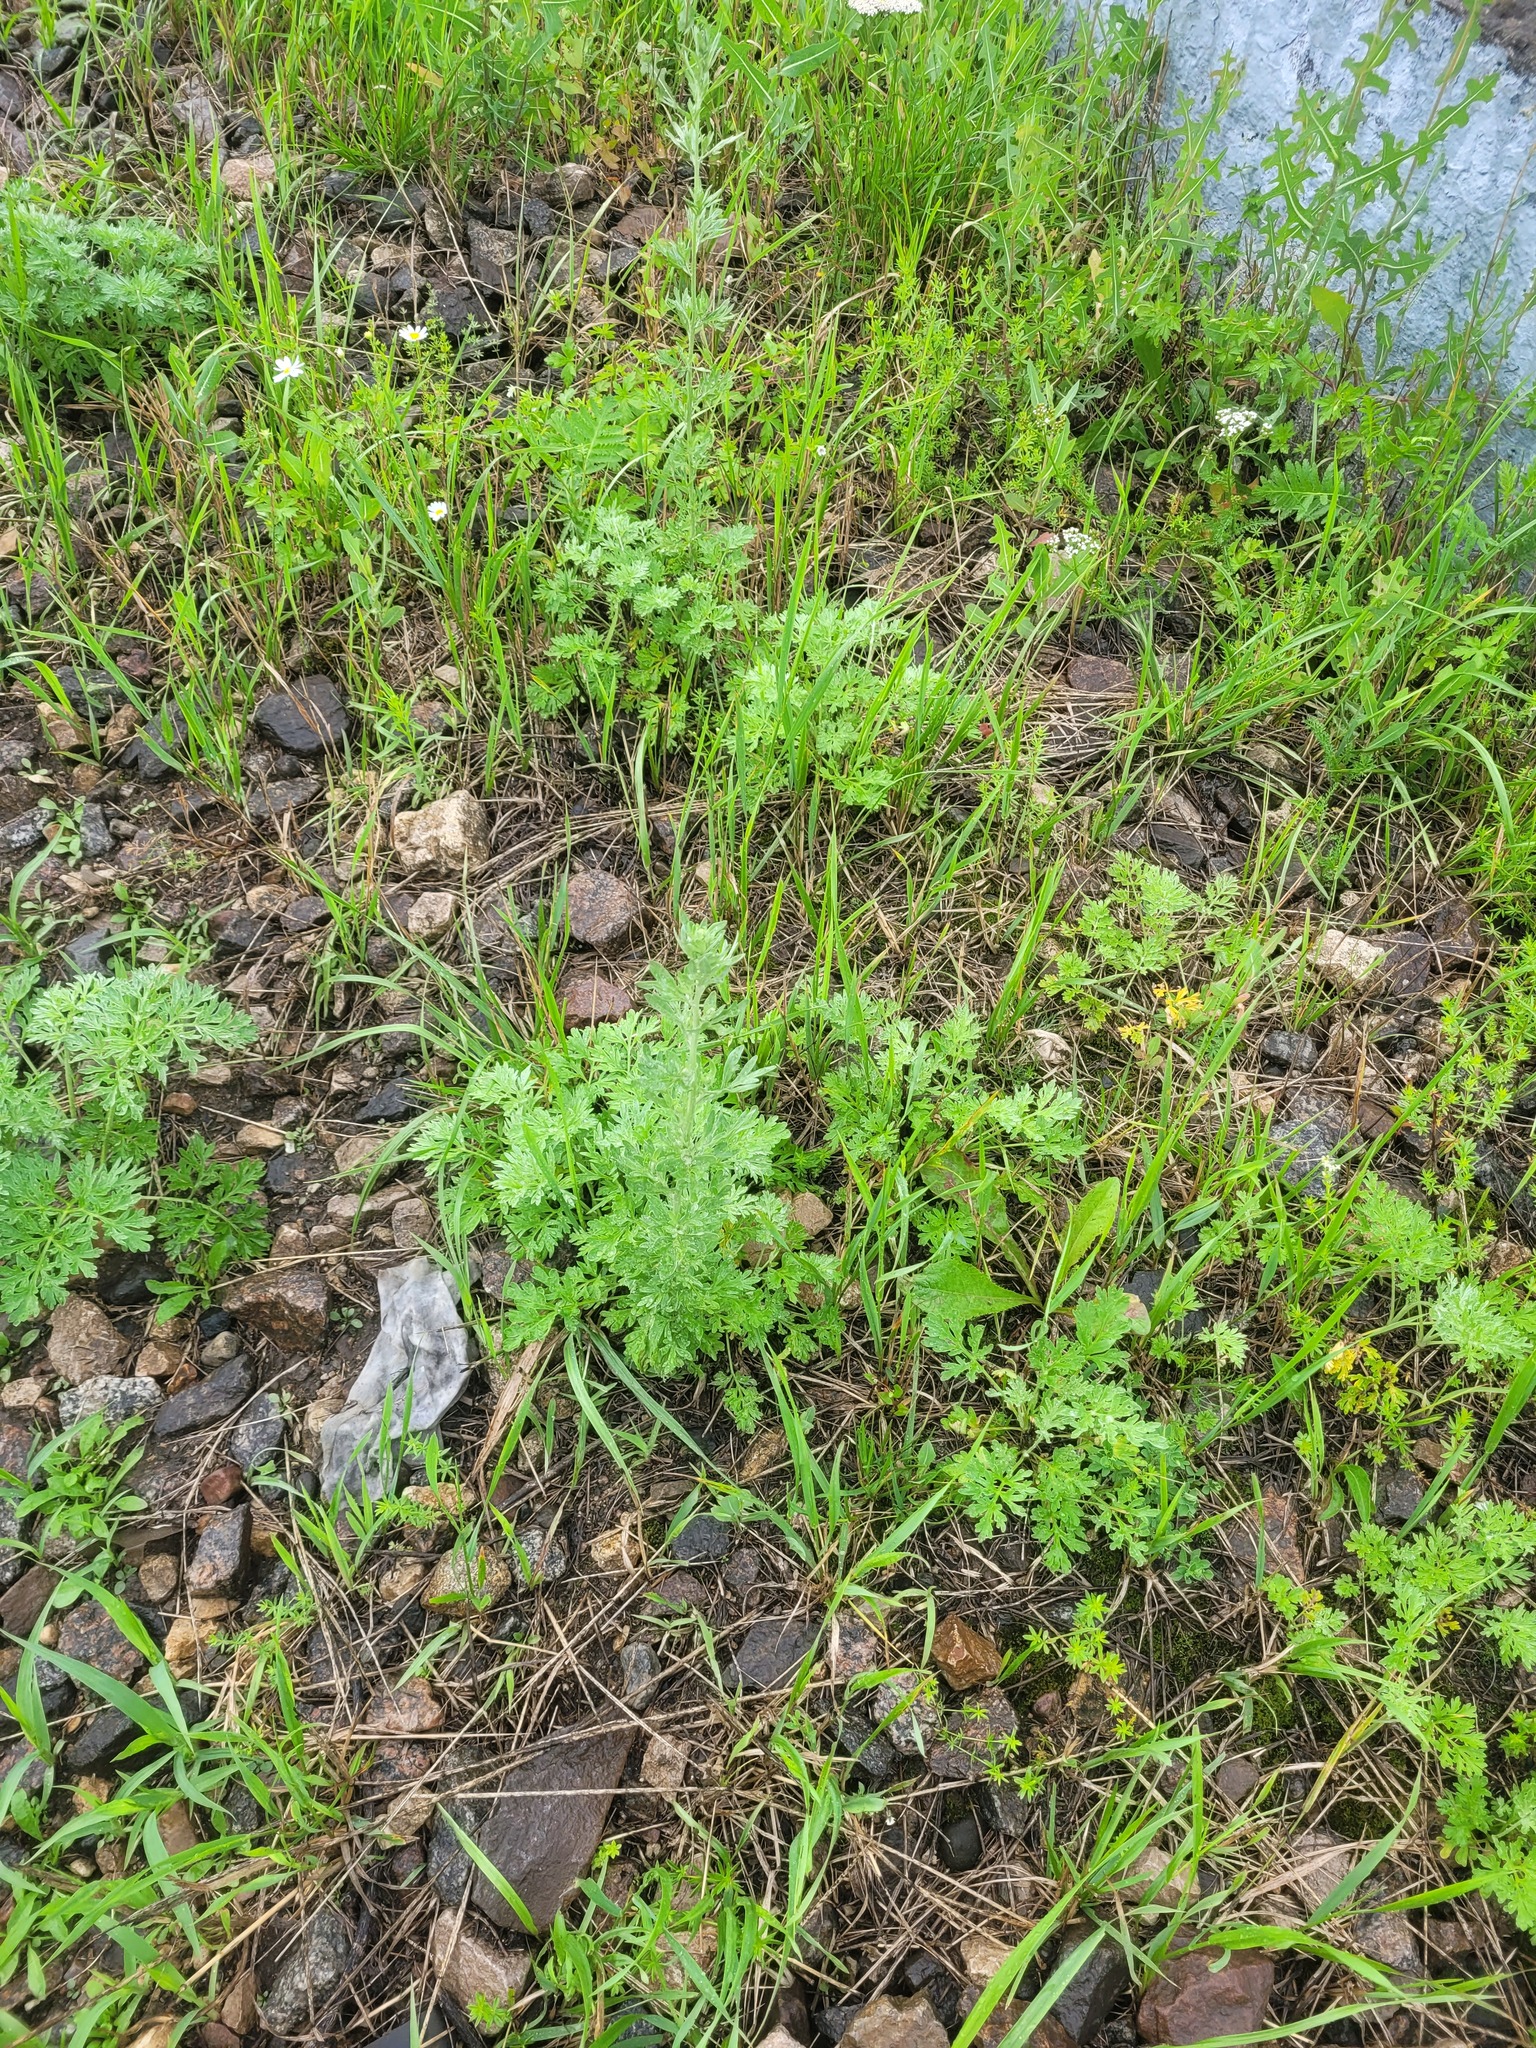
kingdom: Plantae
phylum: Tracheophyta
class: Magnoliopsida
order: Asterales
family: Asteraceae
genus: Artemisia
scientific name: Artemisia absinthium
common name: Wormwood
